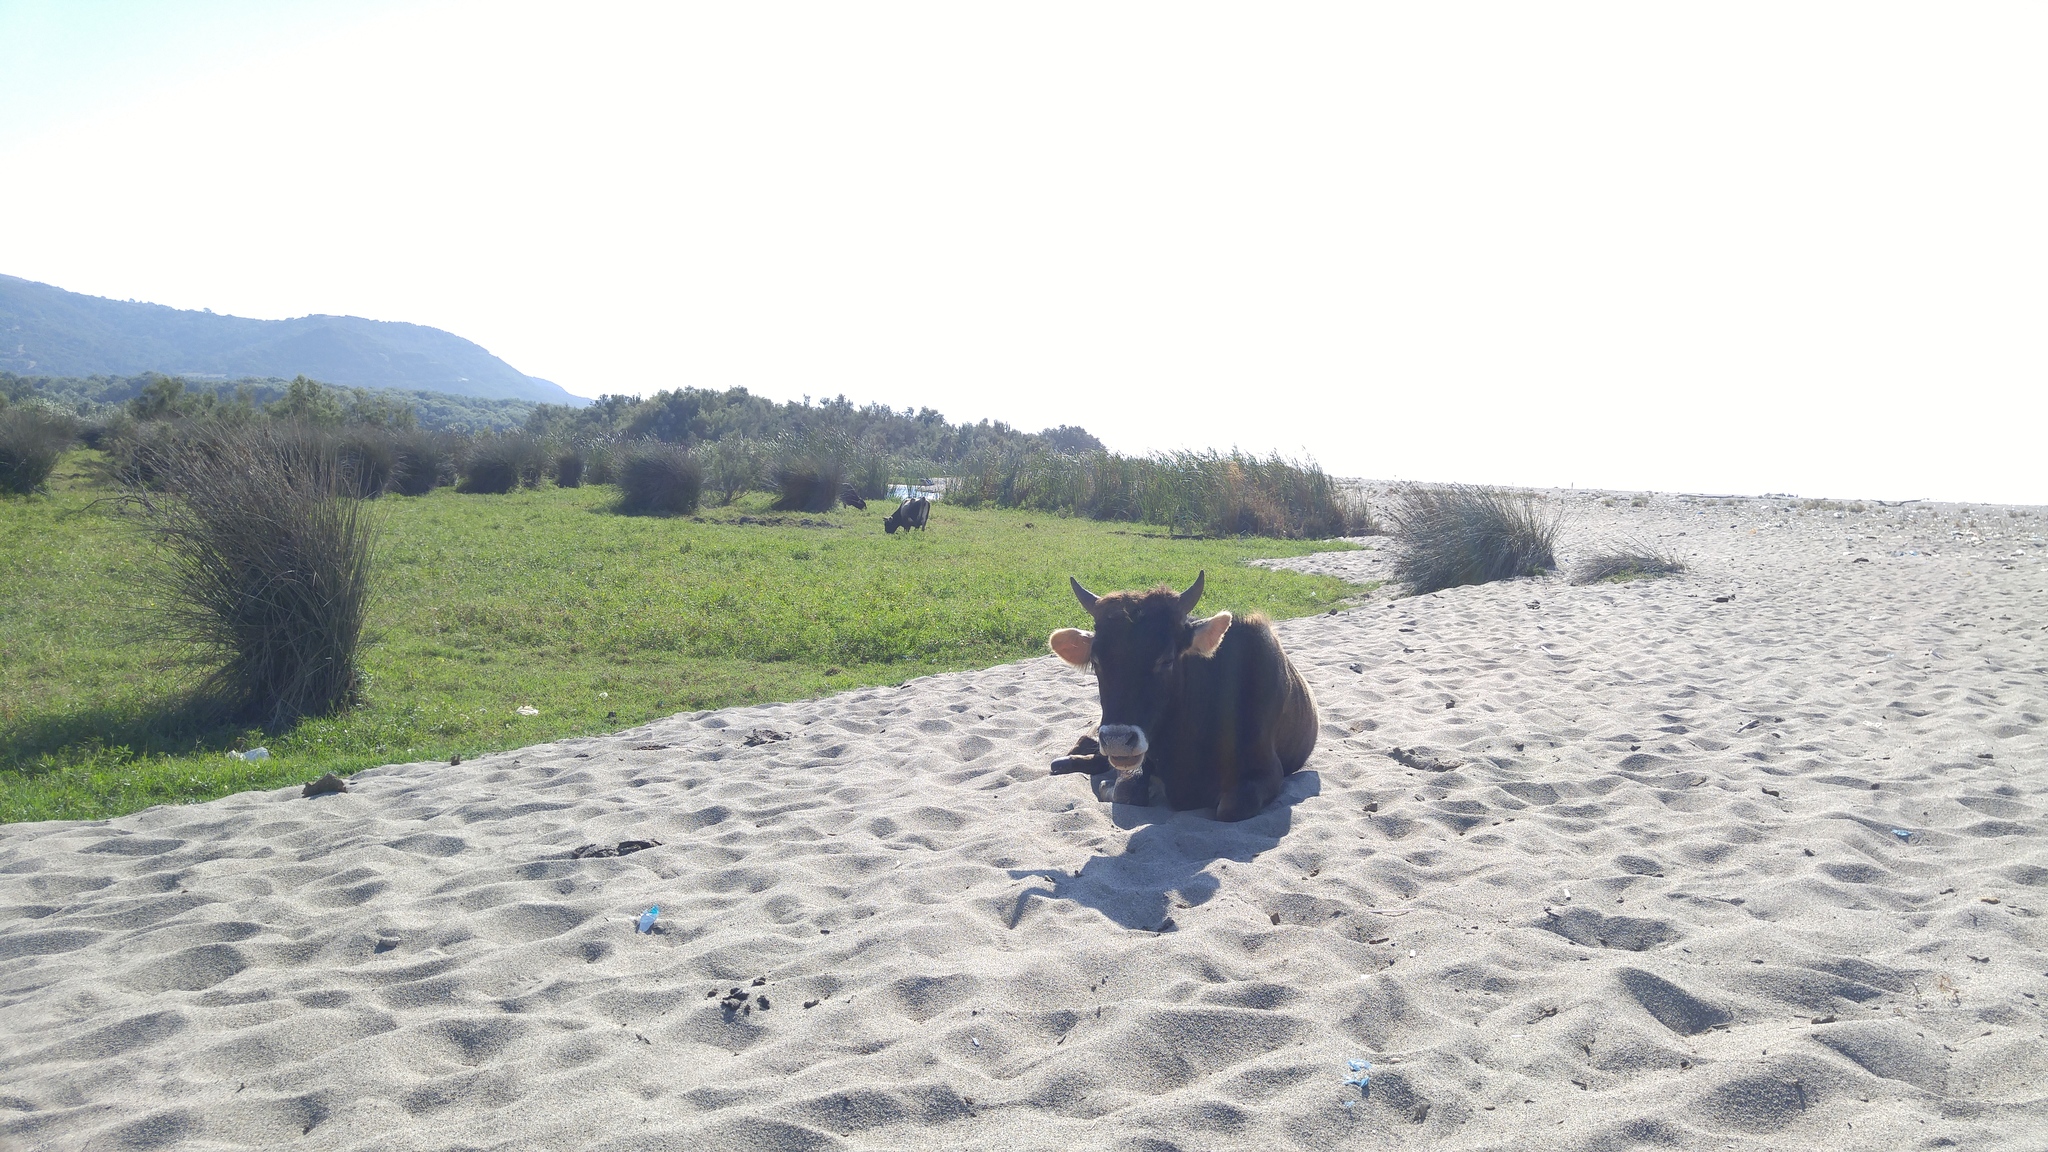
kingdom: Animalia
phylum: Chordata
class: Mammalia
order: Artiodactyla
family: Bovidae
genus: Bos
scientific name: Bos taurus
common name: Domesticated cattle
